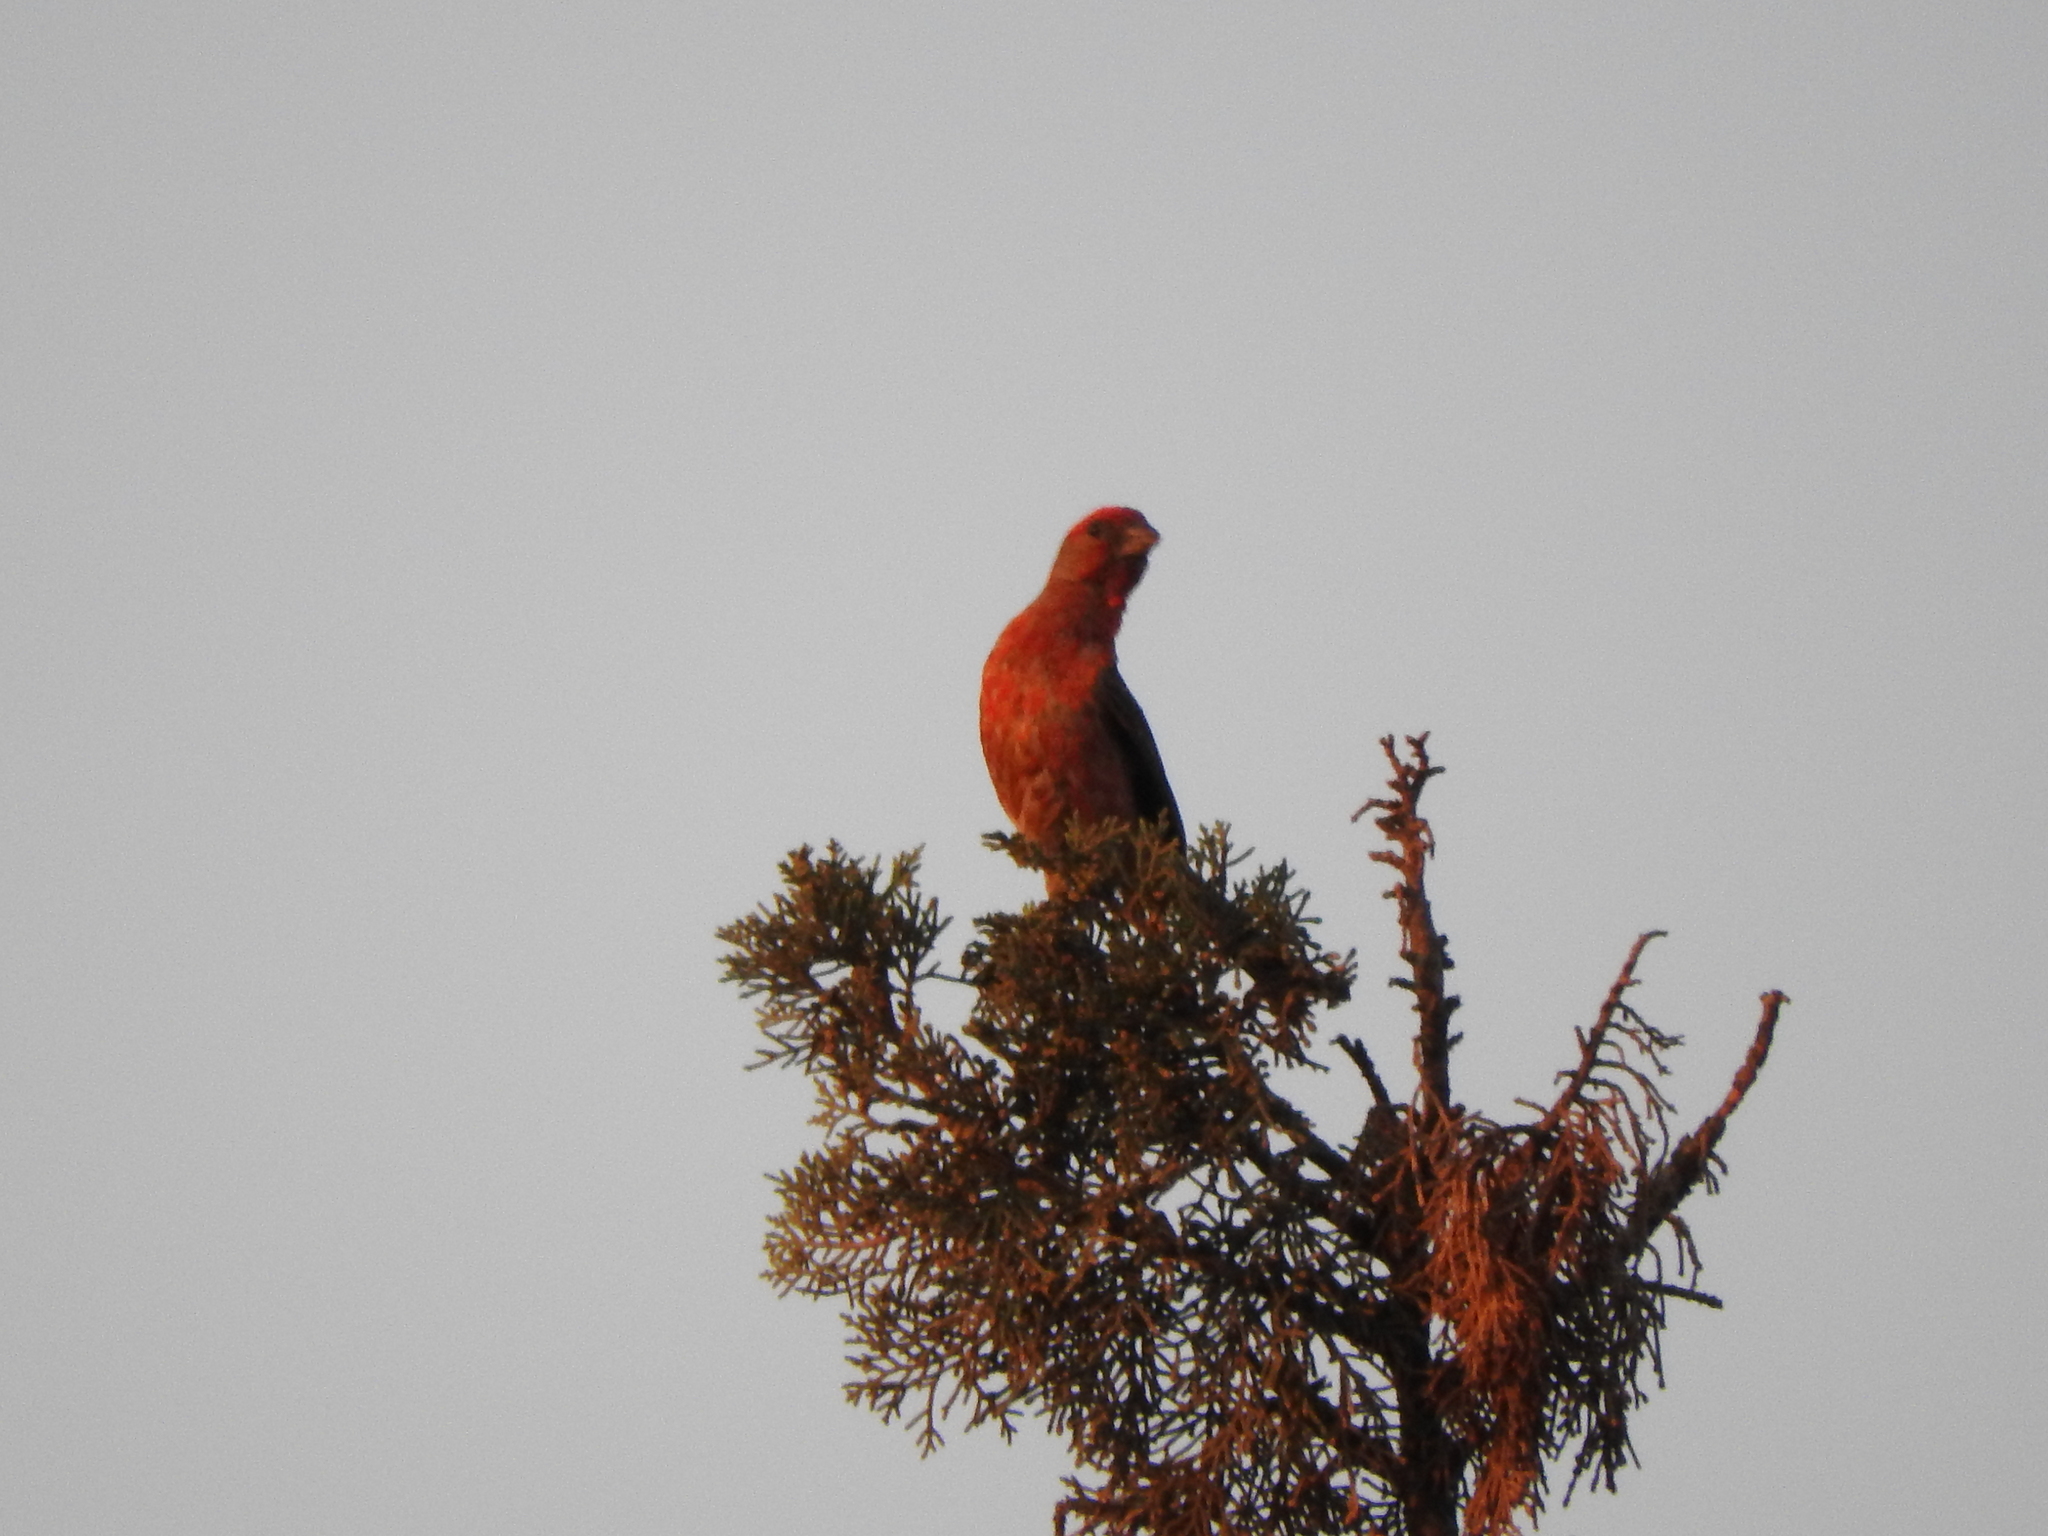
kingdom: Animalia
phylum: Chordata
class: Aves
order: Passeriformes
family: Fringillidae
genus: Haemorhous
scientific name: Haemorhous mexicanus
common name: House finch
